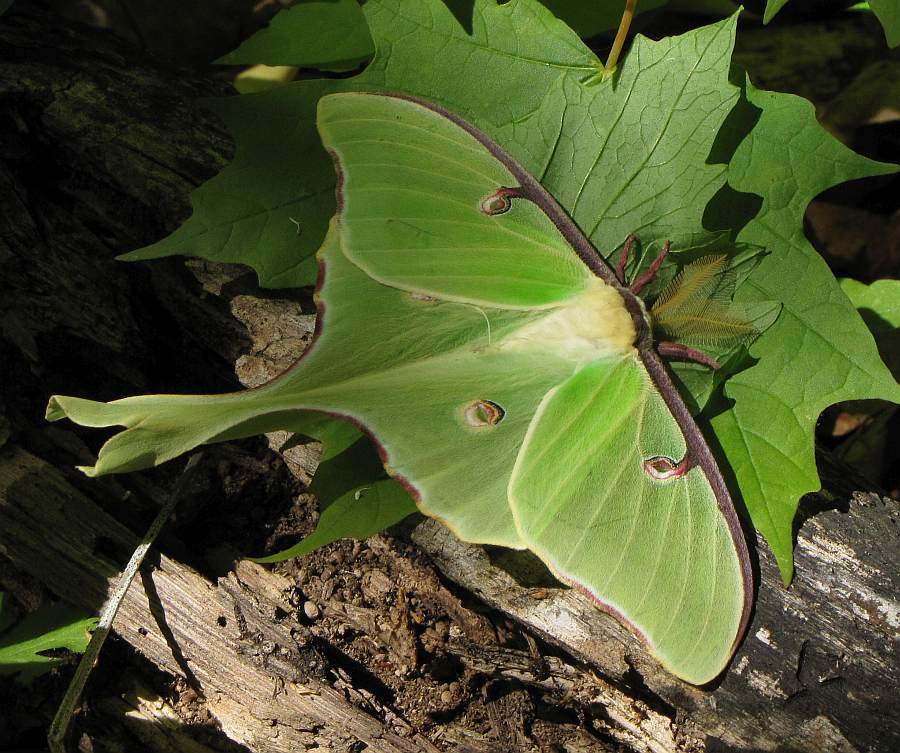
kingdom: Animalia
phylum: Arthropoda
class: Insecta
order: Lepidoptera
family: Saturniidae
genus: Actias
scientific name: Actias luna
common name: Luna moth
